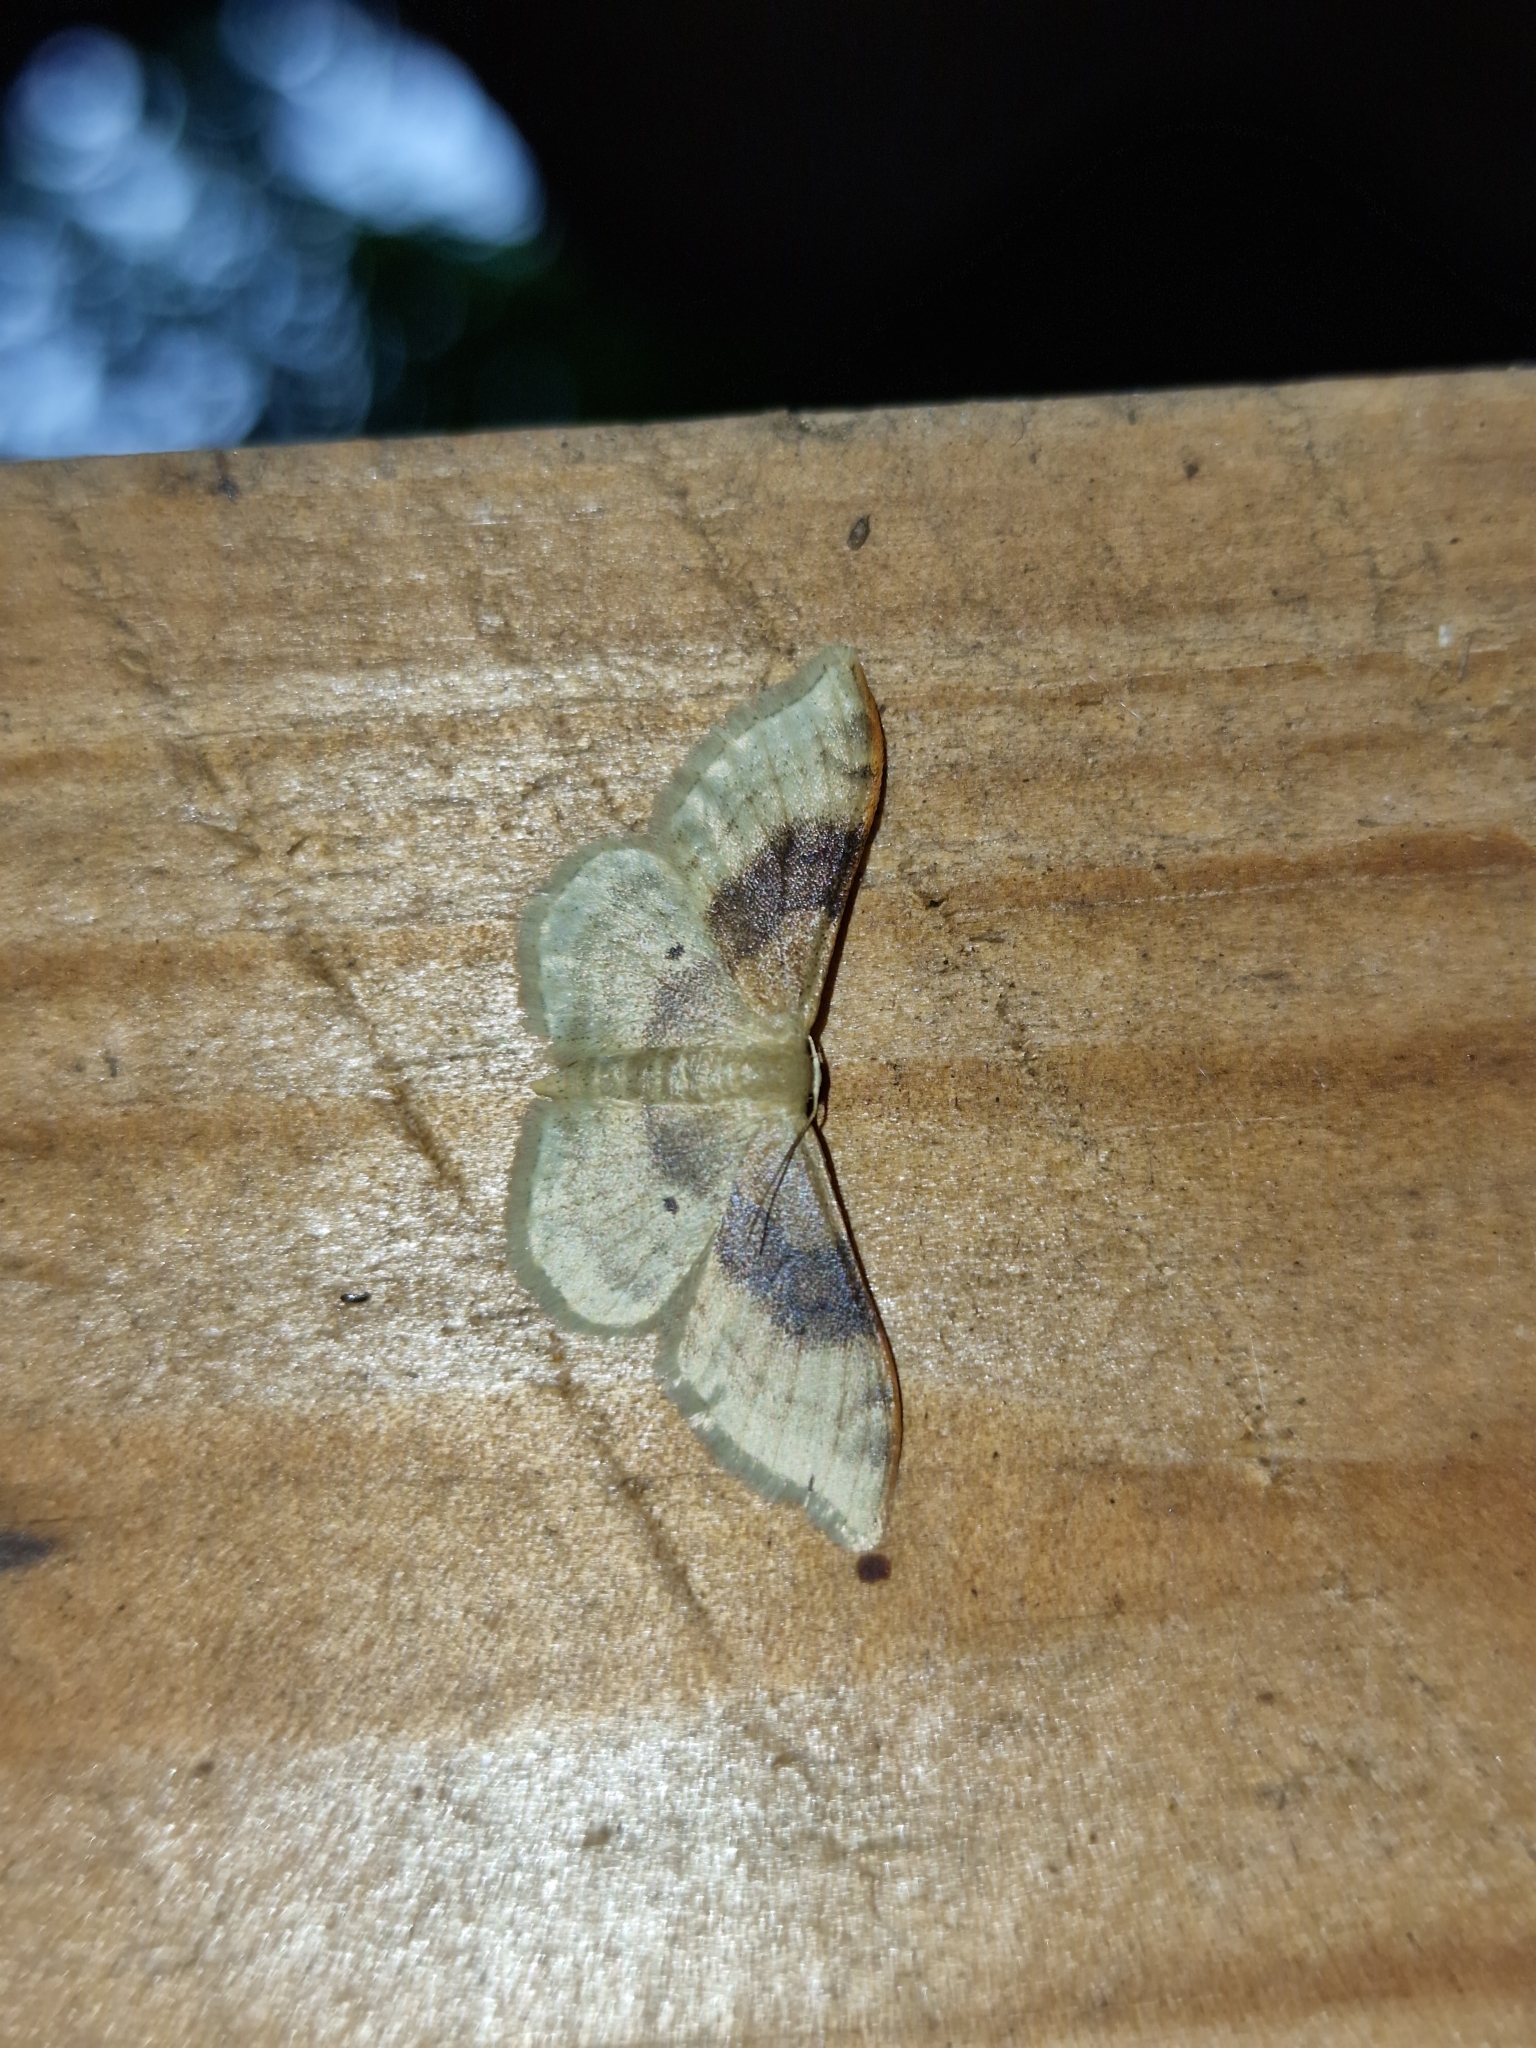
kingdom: Animalia
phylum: Arthropoda
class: Insecta
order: Lepidoptera
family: Geometridae
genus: Idaea
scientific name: Idaea degeneraria
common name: Portland ribbon wave
